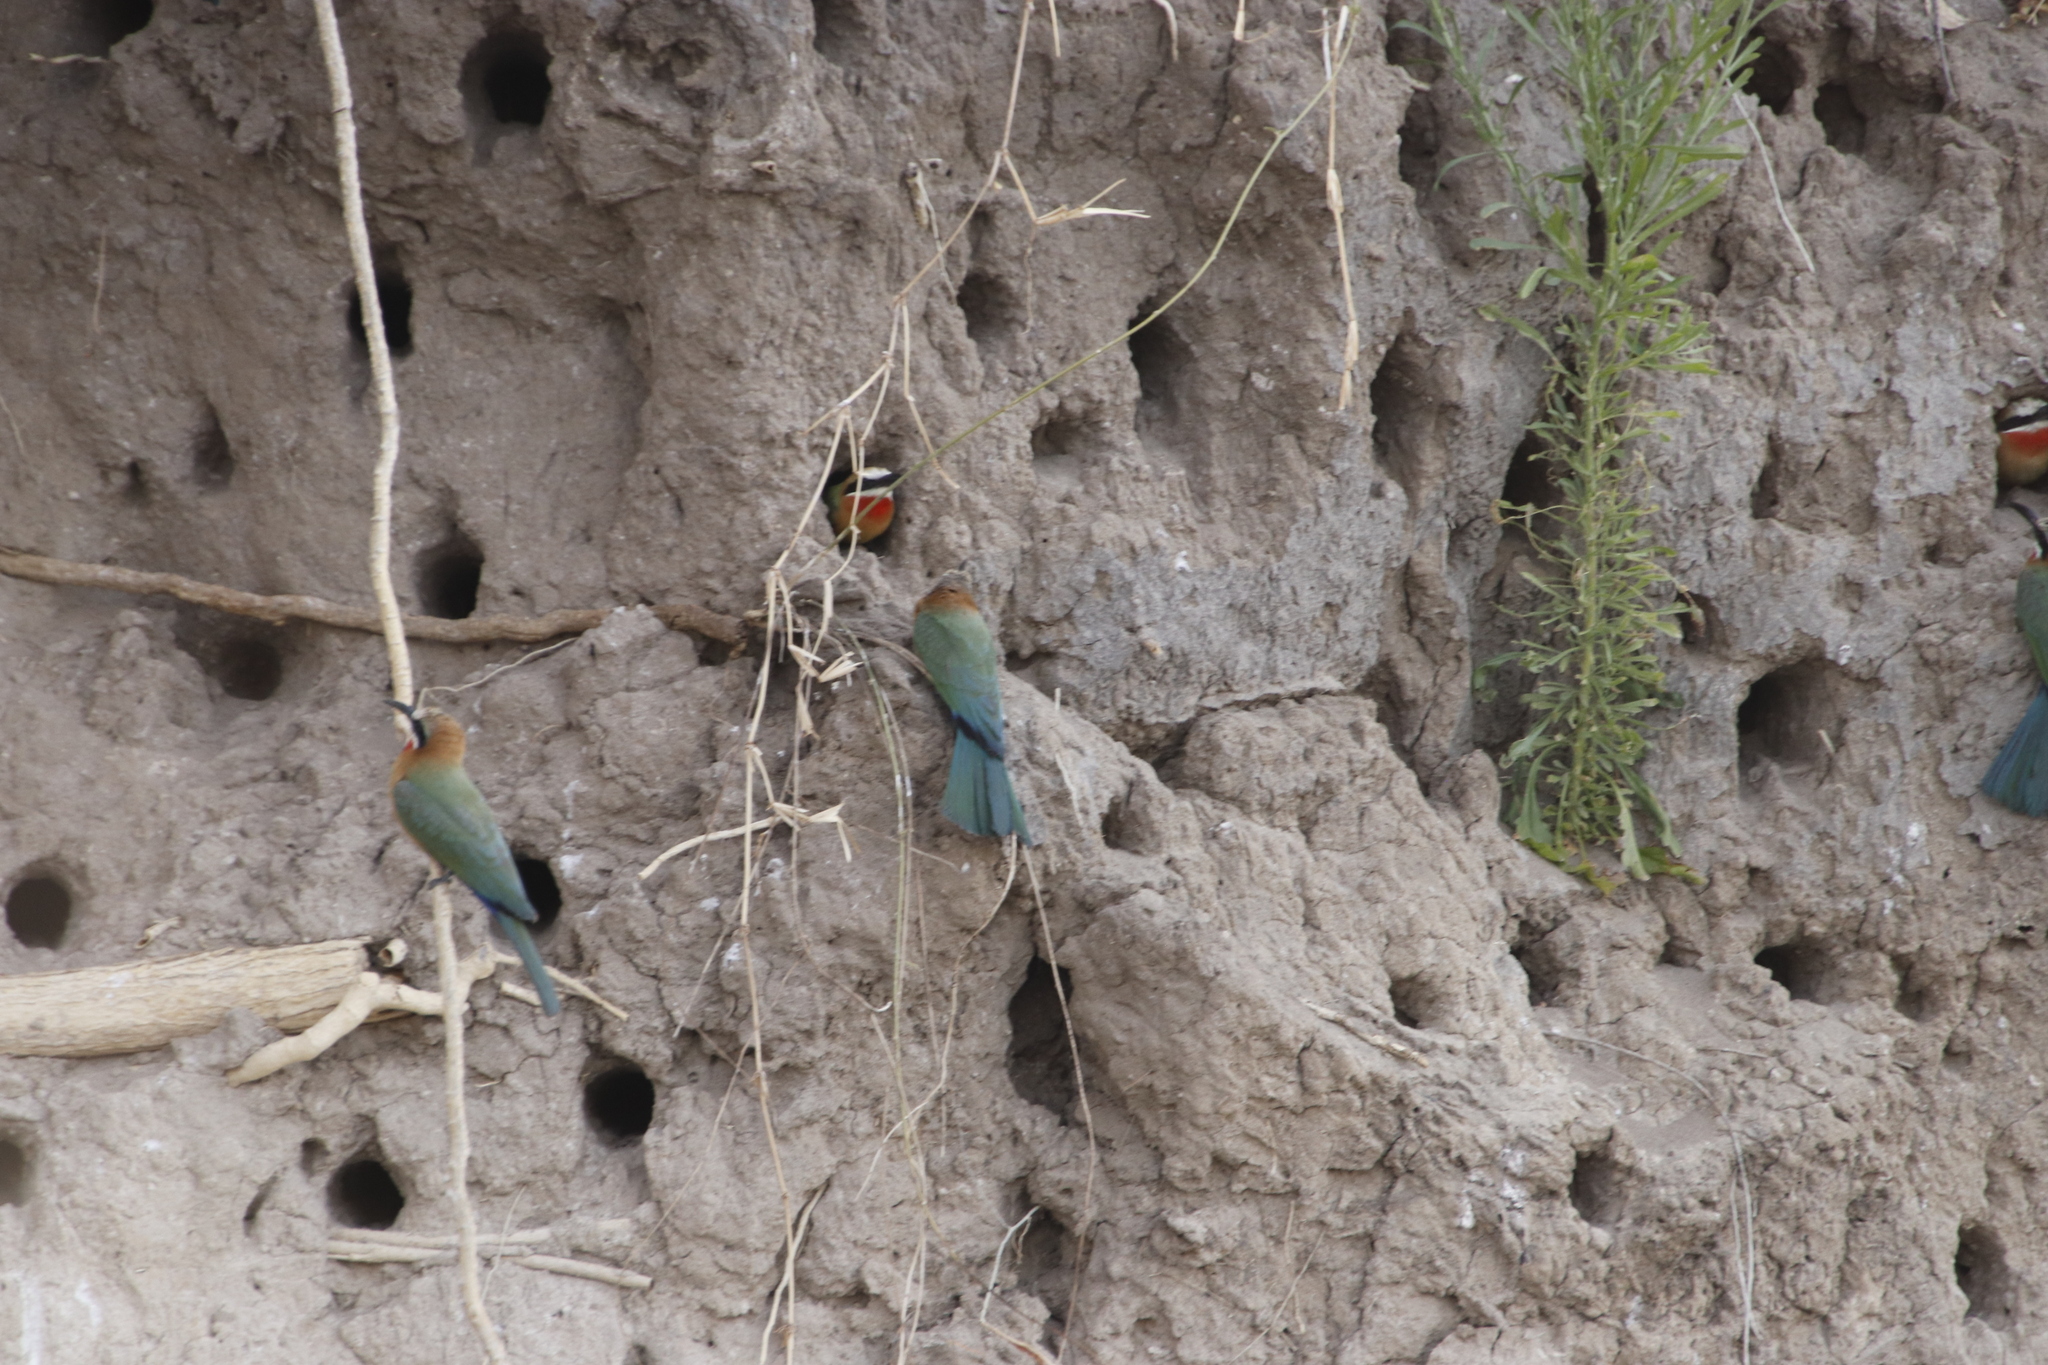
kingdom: Animalia
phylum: Chordata
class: Aves
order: Coraciiformes
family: Meropidae
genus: Merops
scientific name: Merops bullockoides
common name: White-fronted bee-eater
